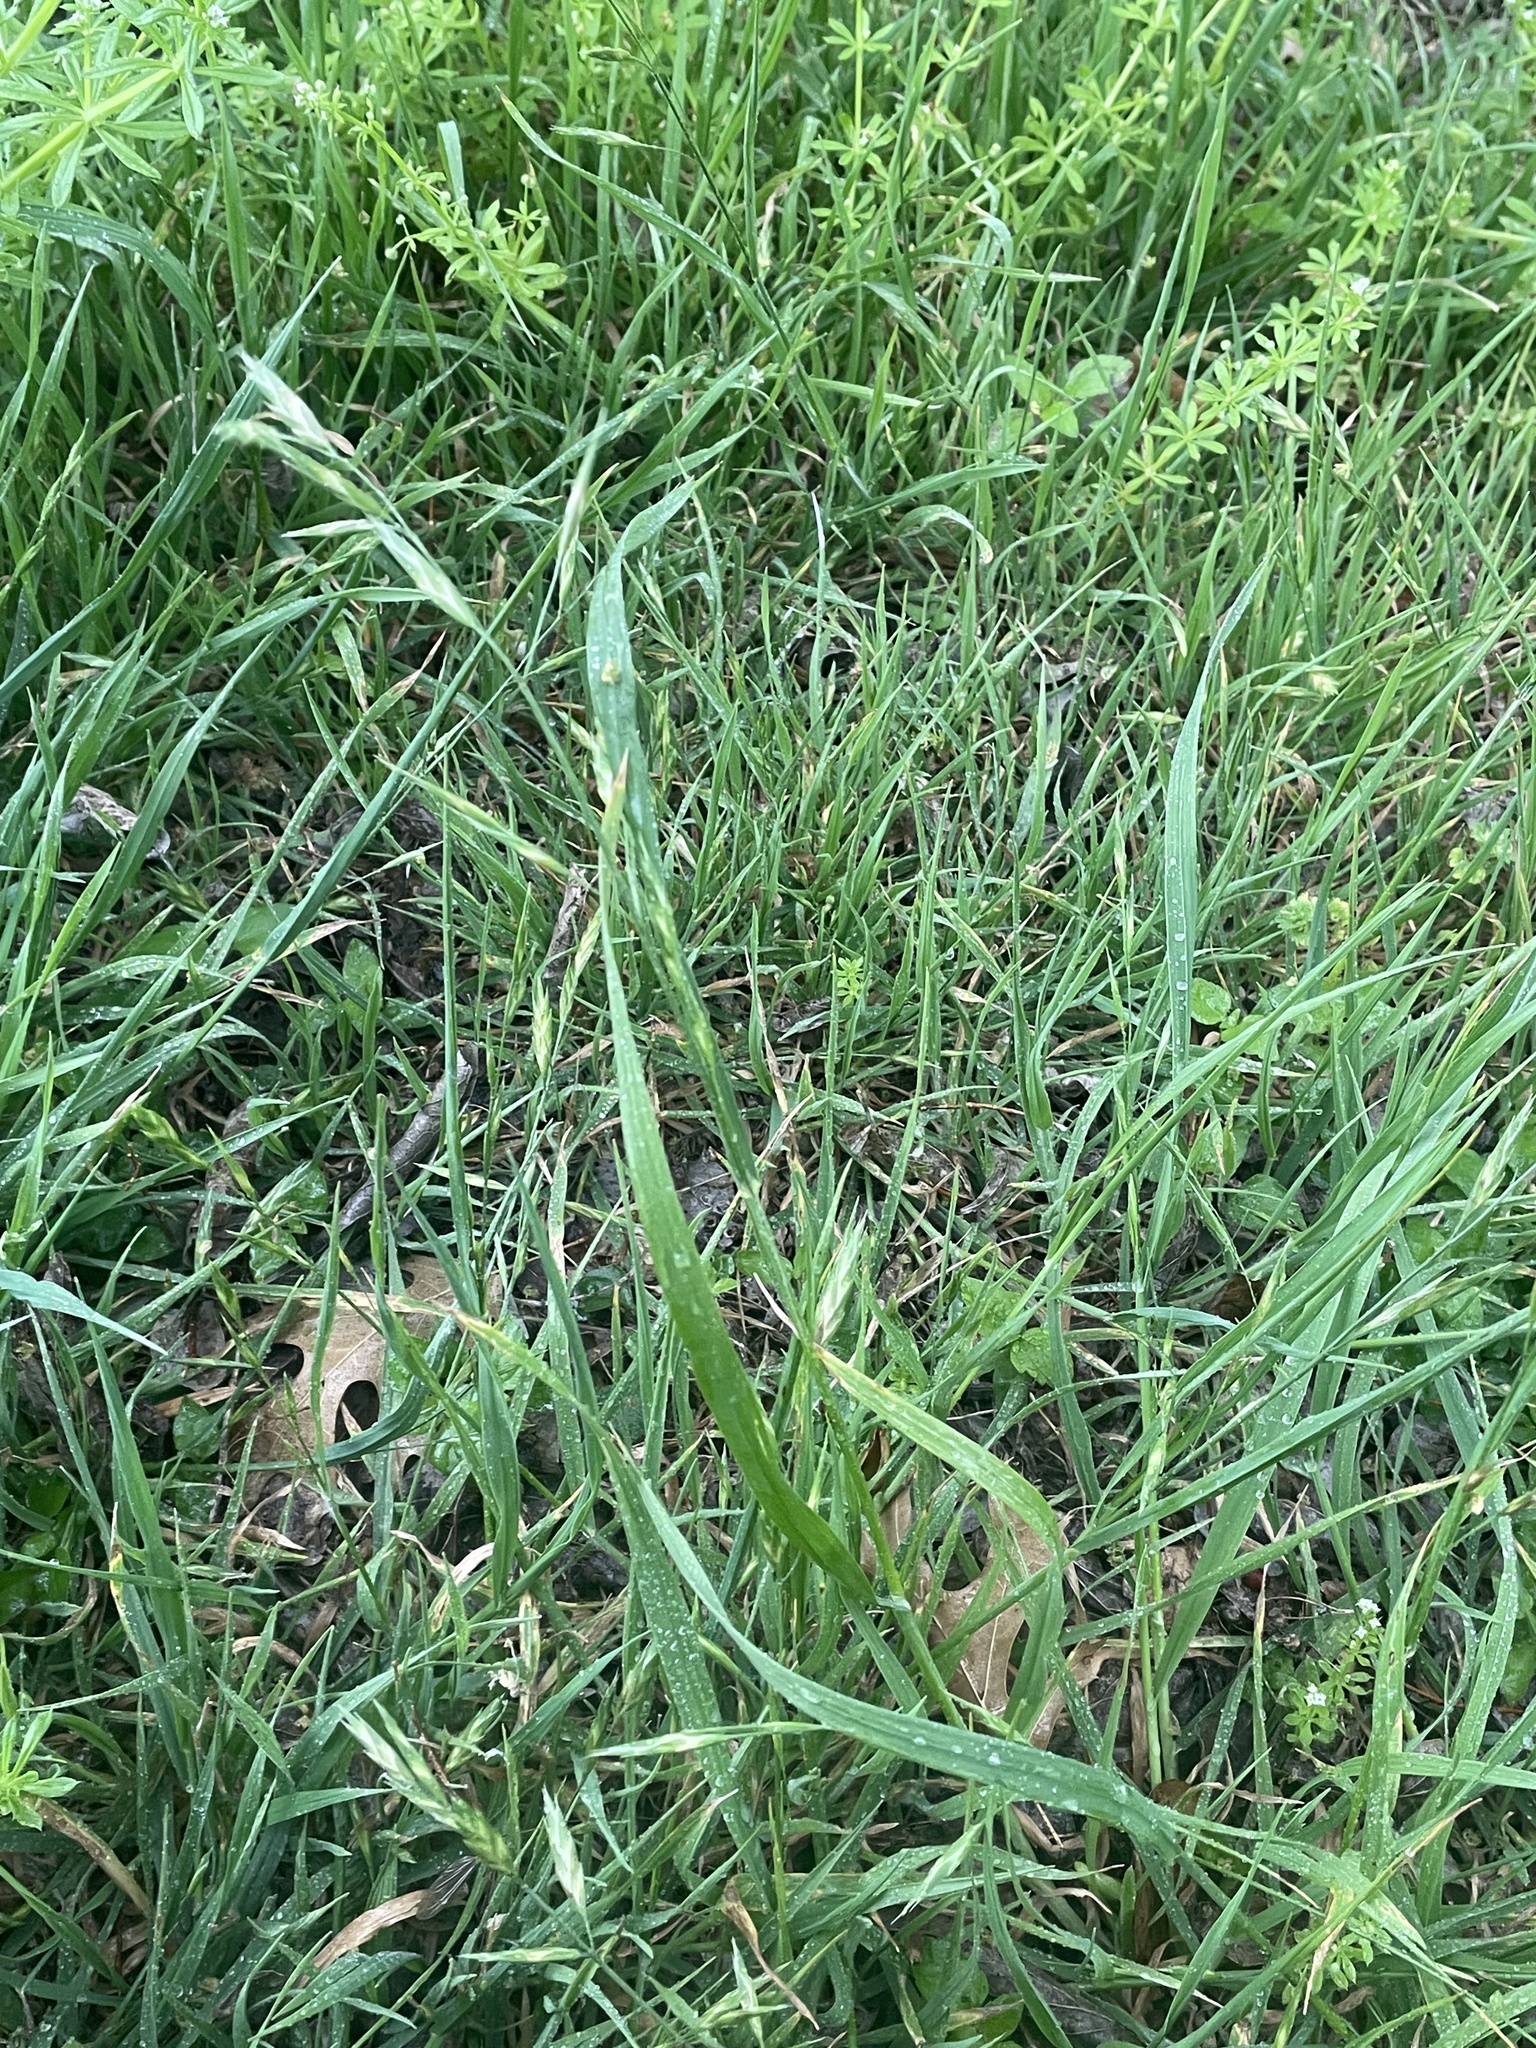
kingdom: Plantae
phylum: Tracheophyta
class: Liliopsida
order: Poales
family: Poaceae
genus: Bromus
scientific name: Bromus catharticus
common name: Rescuegrass
